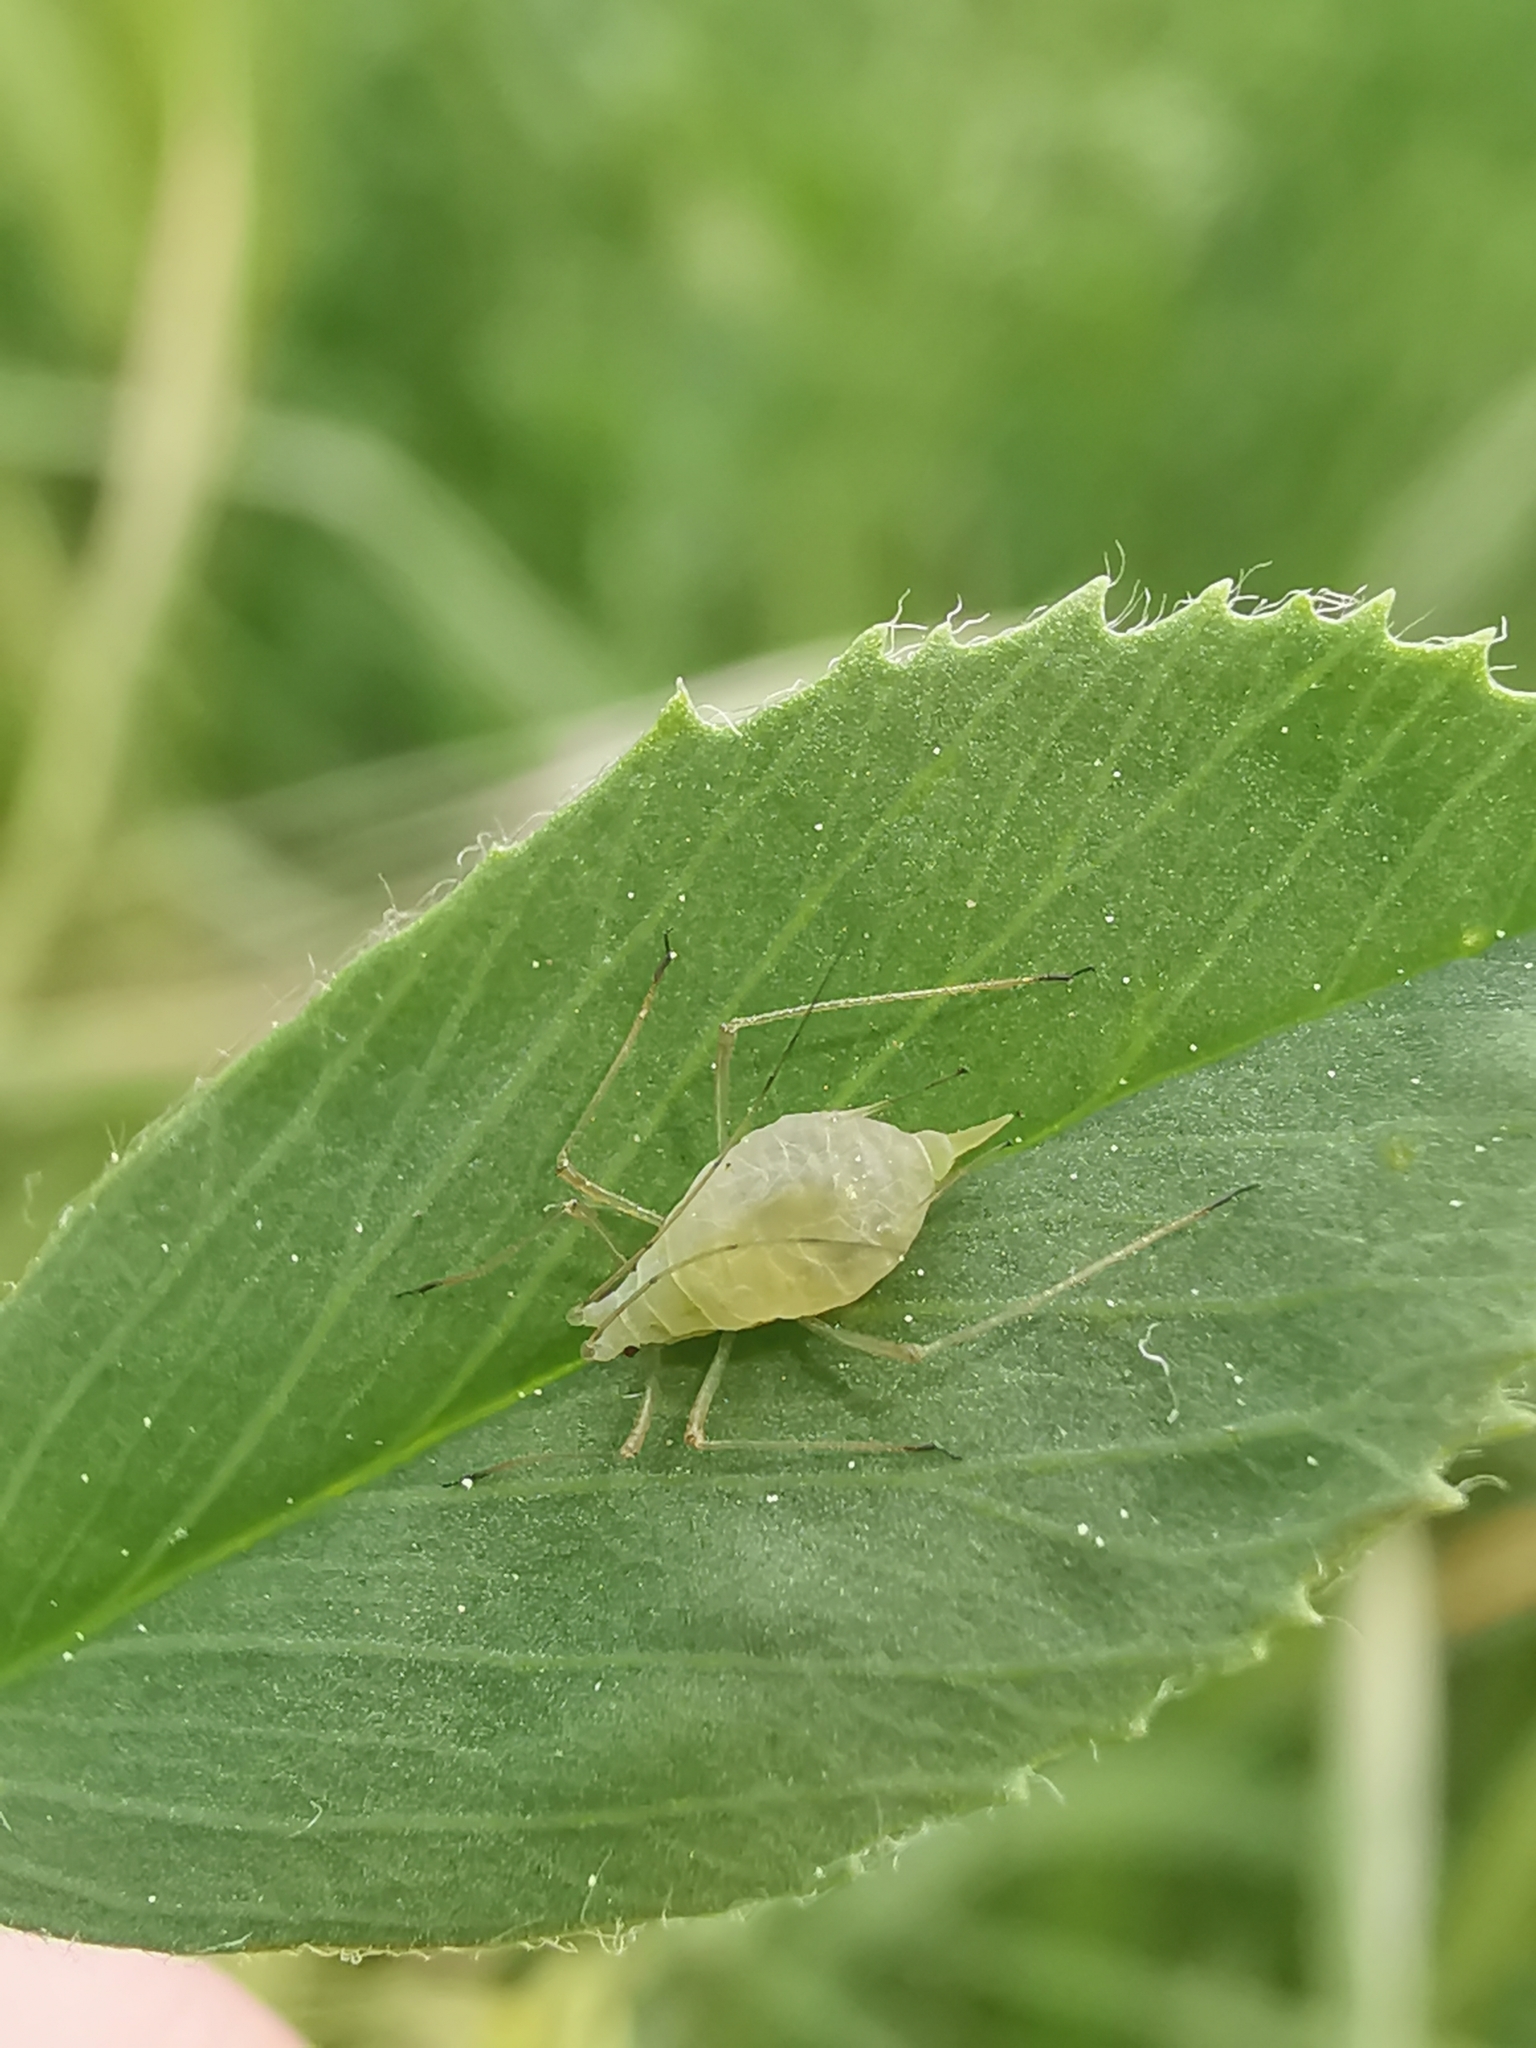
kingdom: Animalia
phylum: Arthropoda
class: Insecta
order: Hemiptera
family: Aphididae
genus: Acyrthosiphon
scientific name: Acyrthosiphon pisum
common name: Pea aphid
